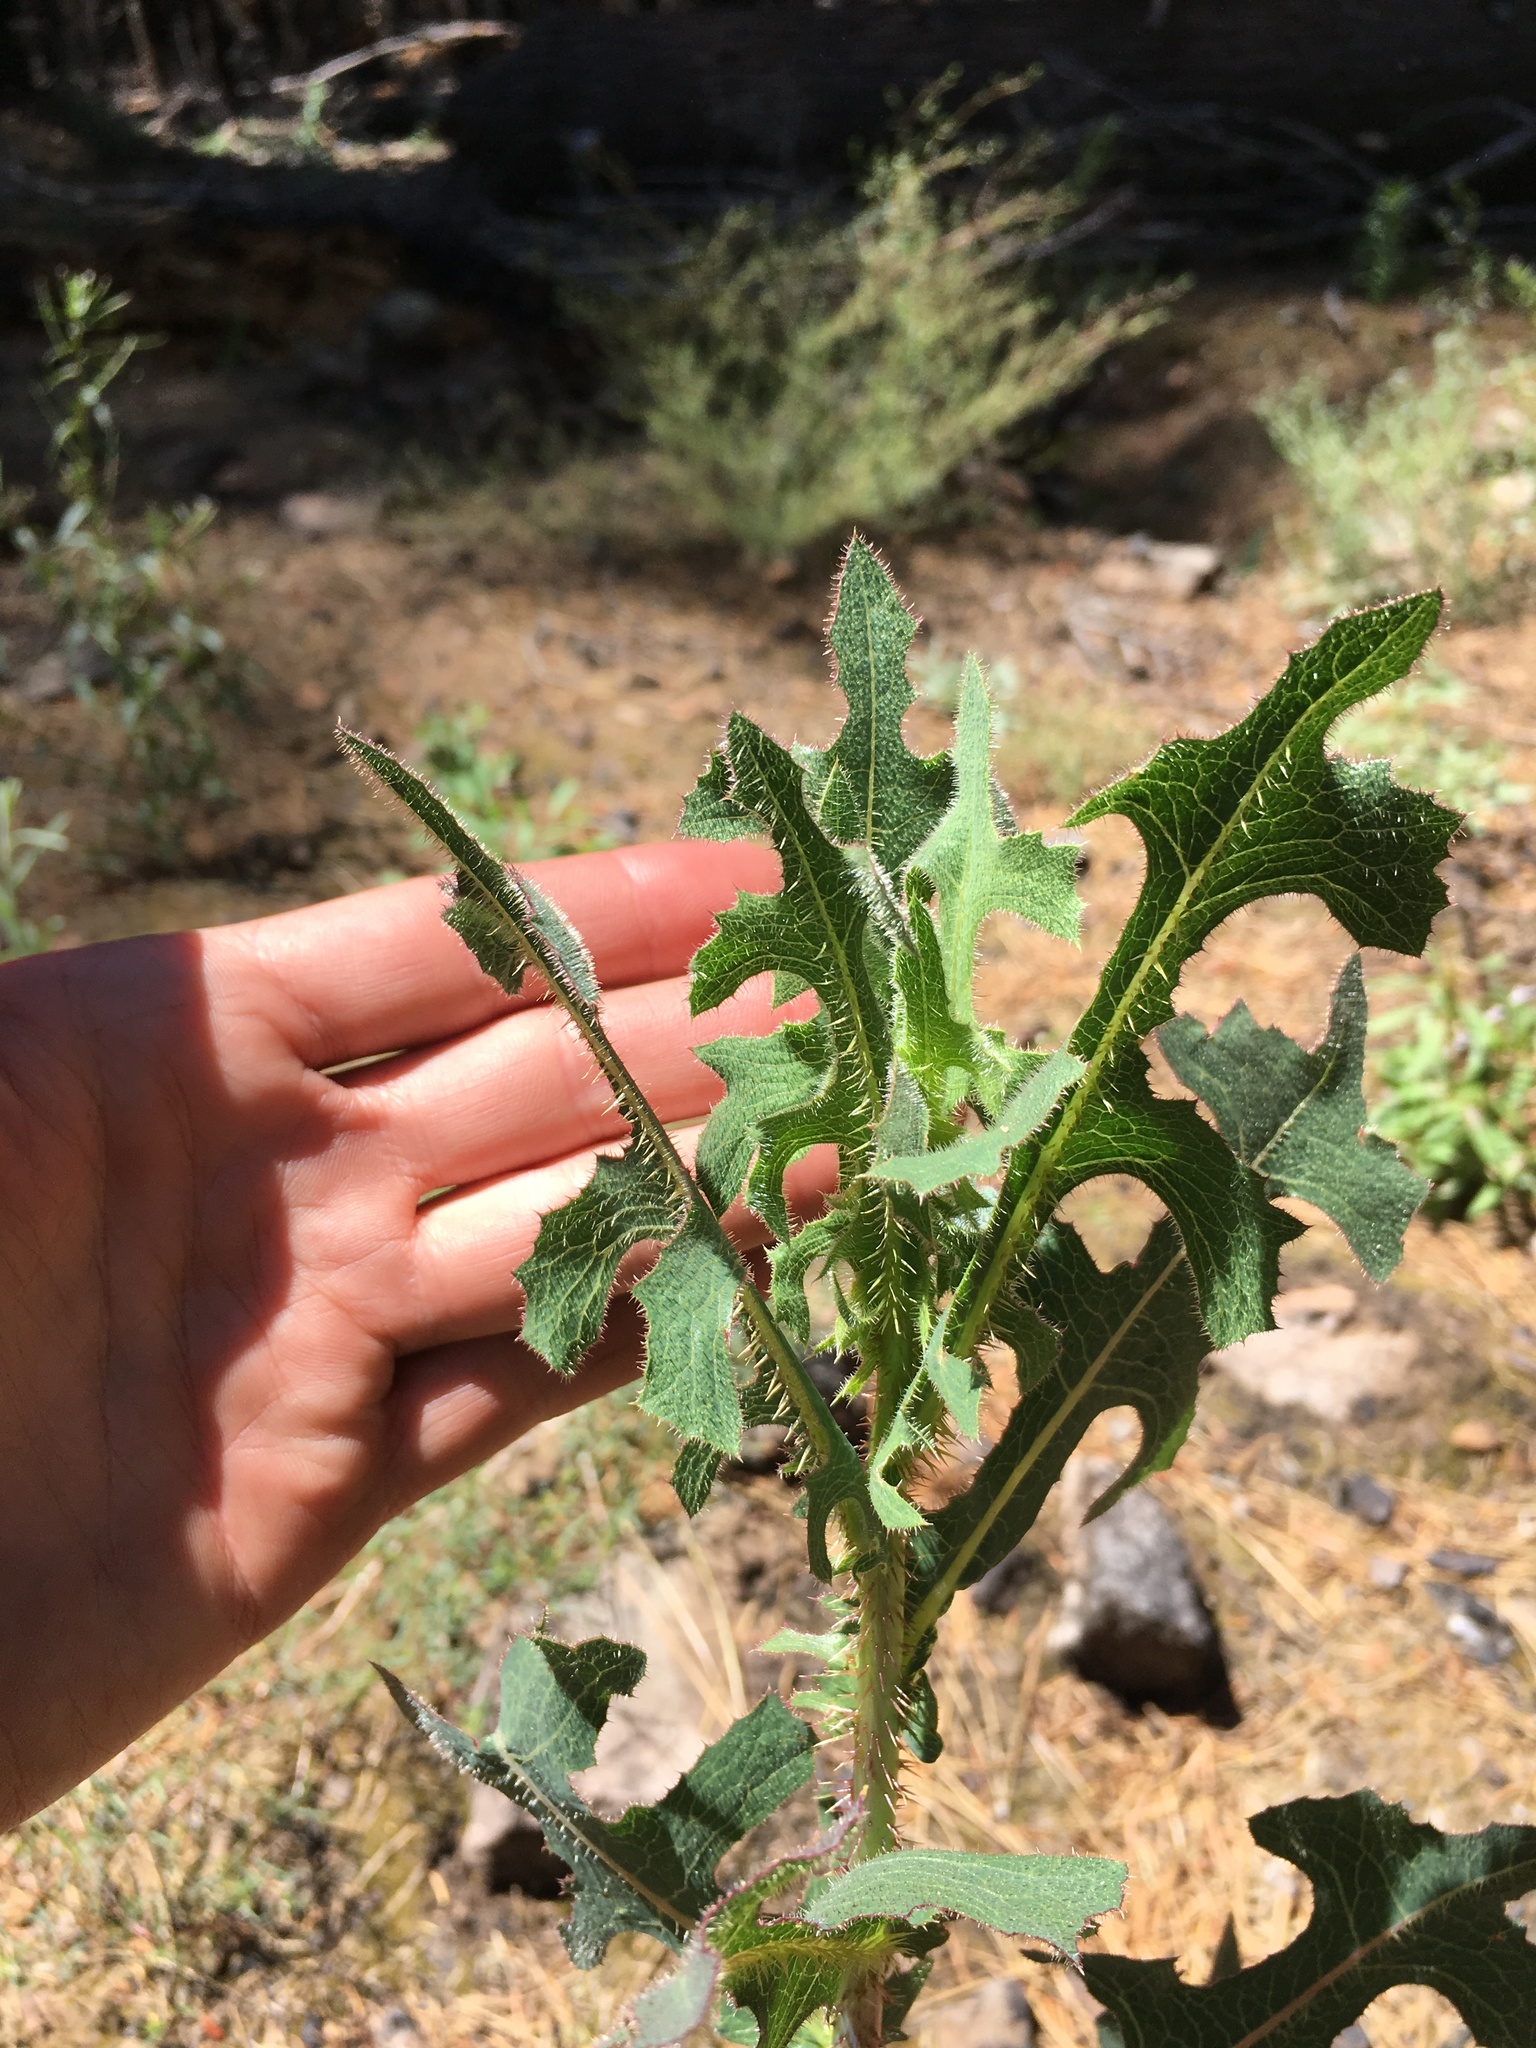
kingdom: Plantae
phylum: Tracheophyta
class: Magnoliopsida
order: Asterales
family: Asteraceae
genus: Lactuca
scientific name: Lactuca serriola
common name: Prickly lettuce
